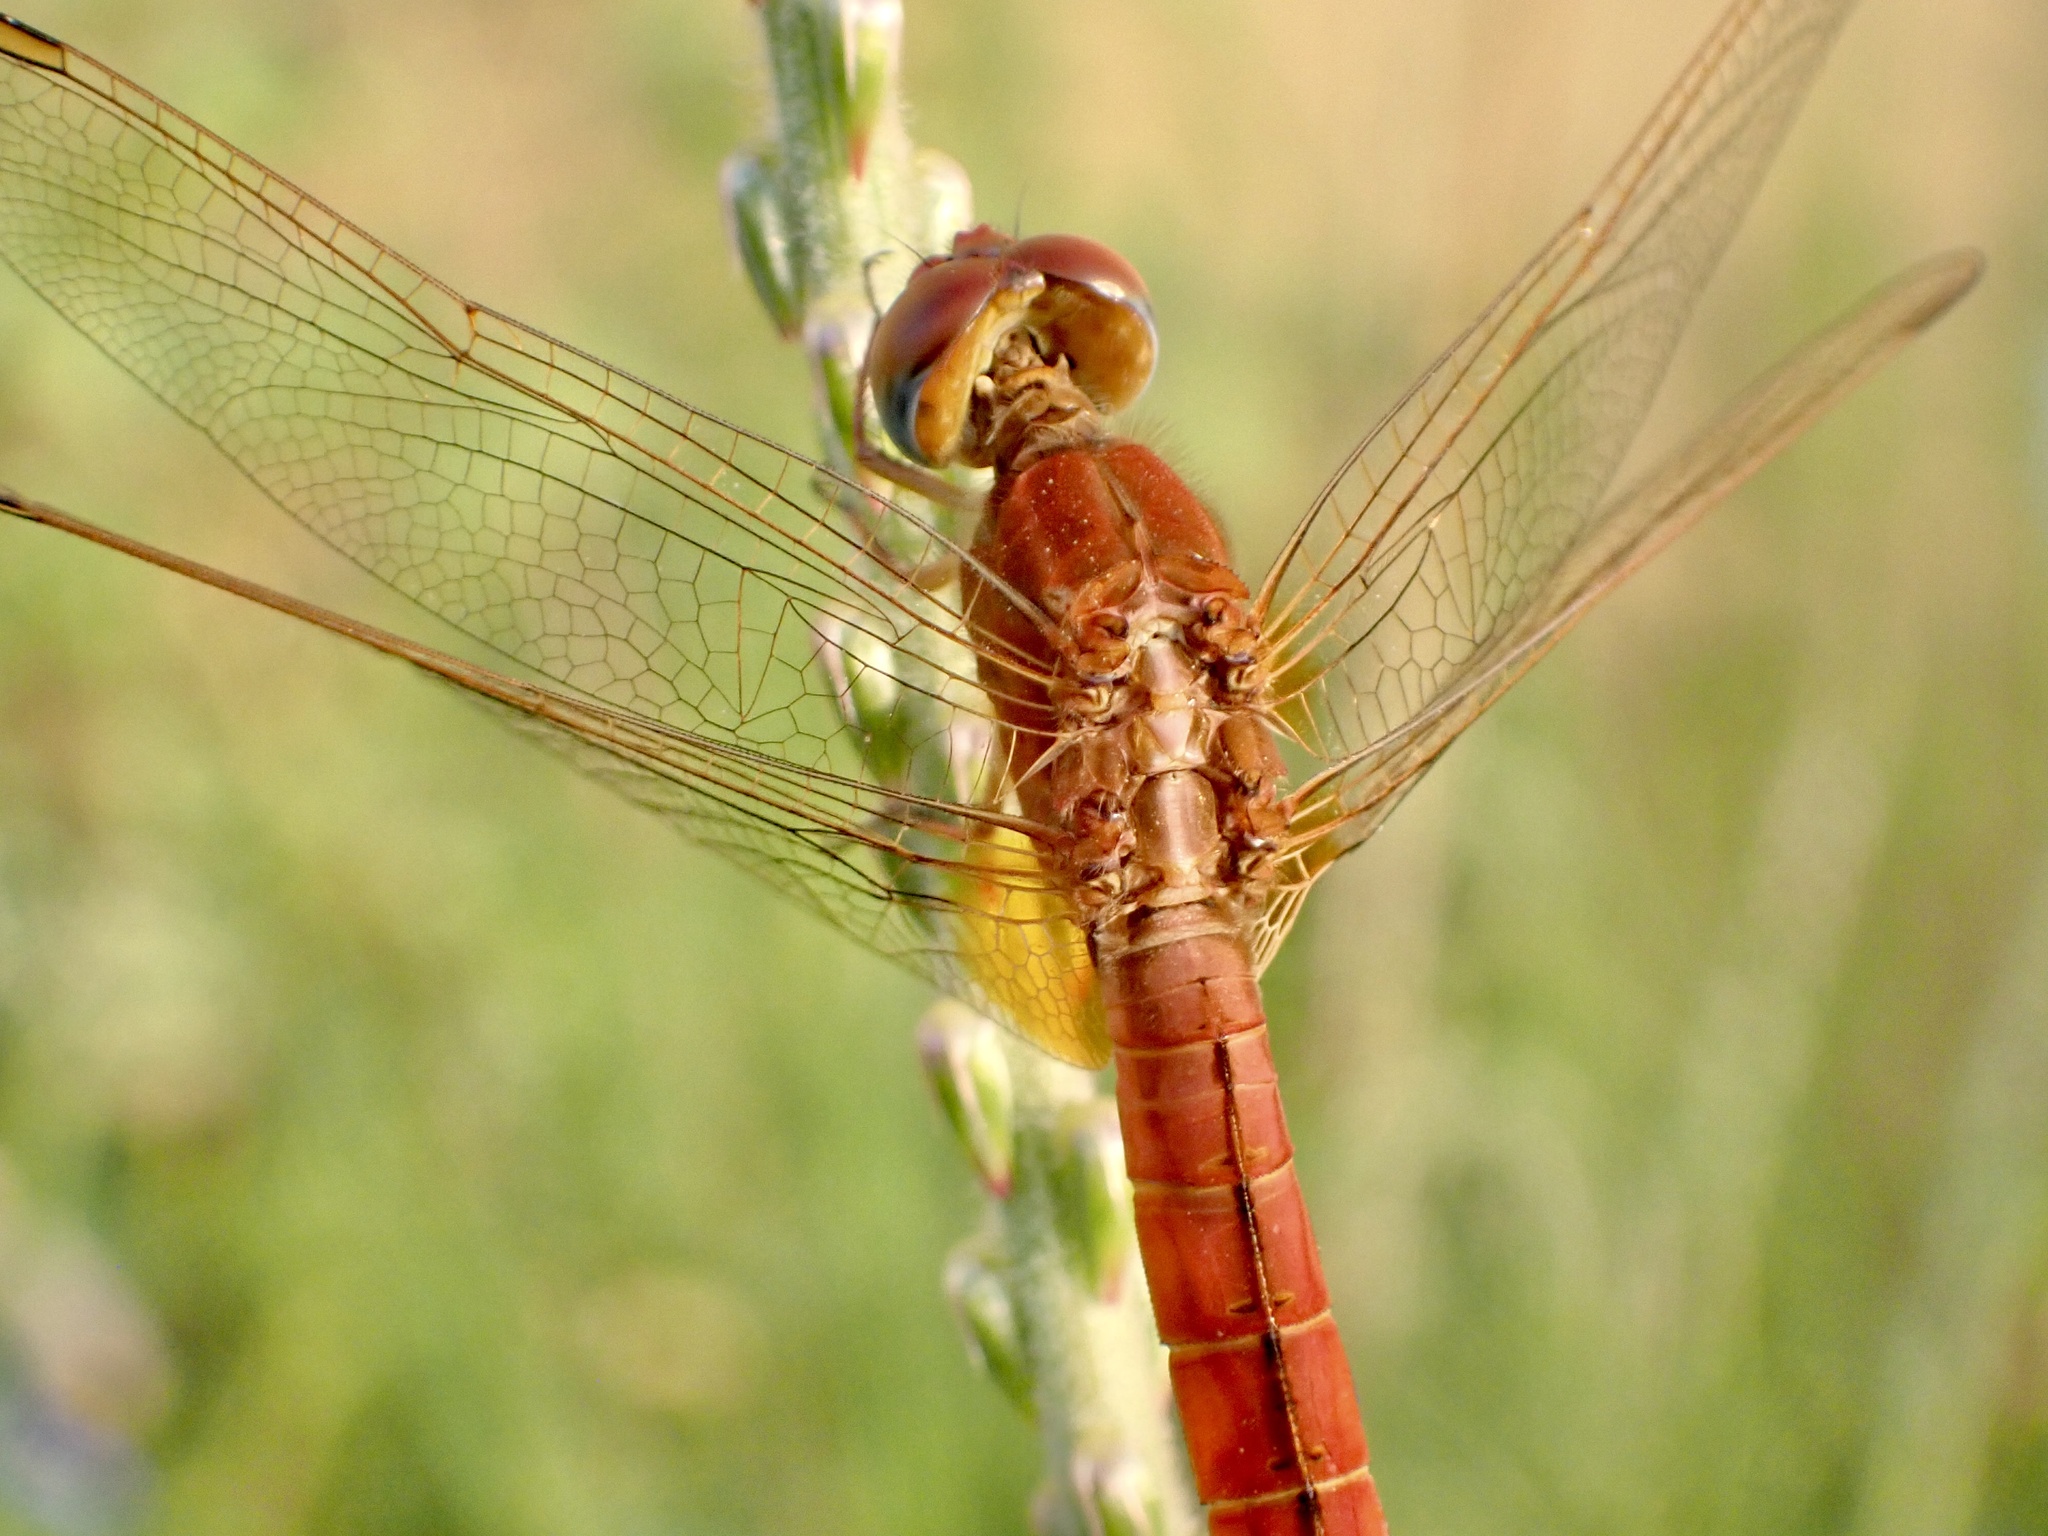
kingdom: Animalia
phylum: Arthropoda
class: Insecta
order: Odonata
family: Libellulidae
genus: Crocothemis
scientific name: Crocothemis erythraea
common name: Scarlet dragonfly
